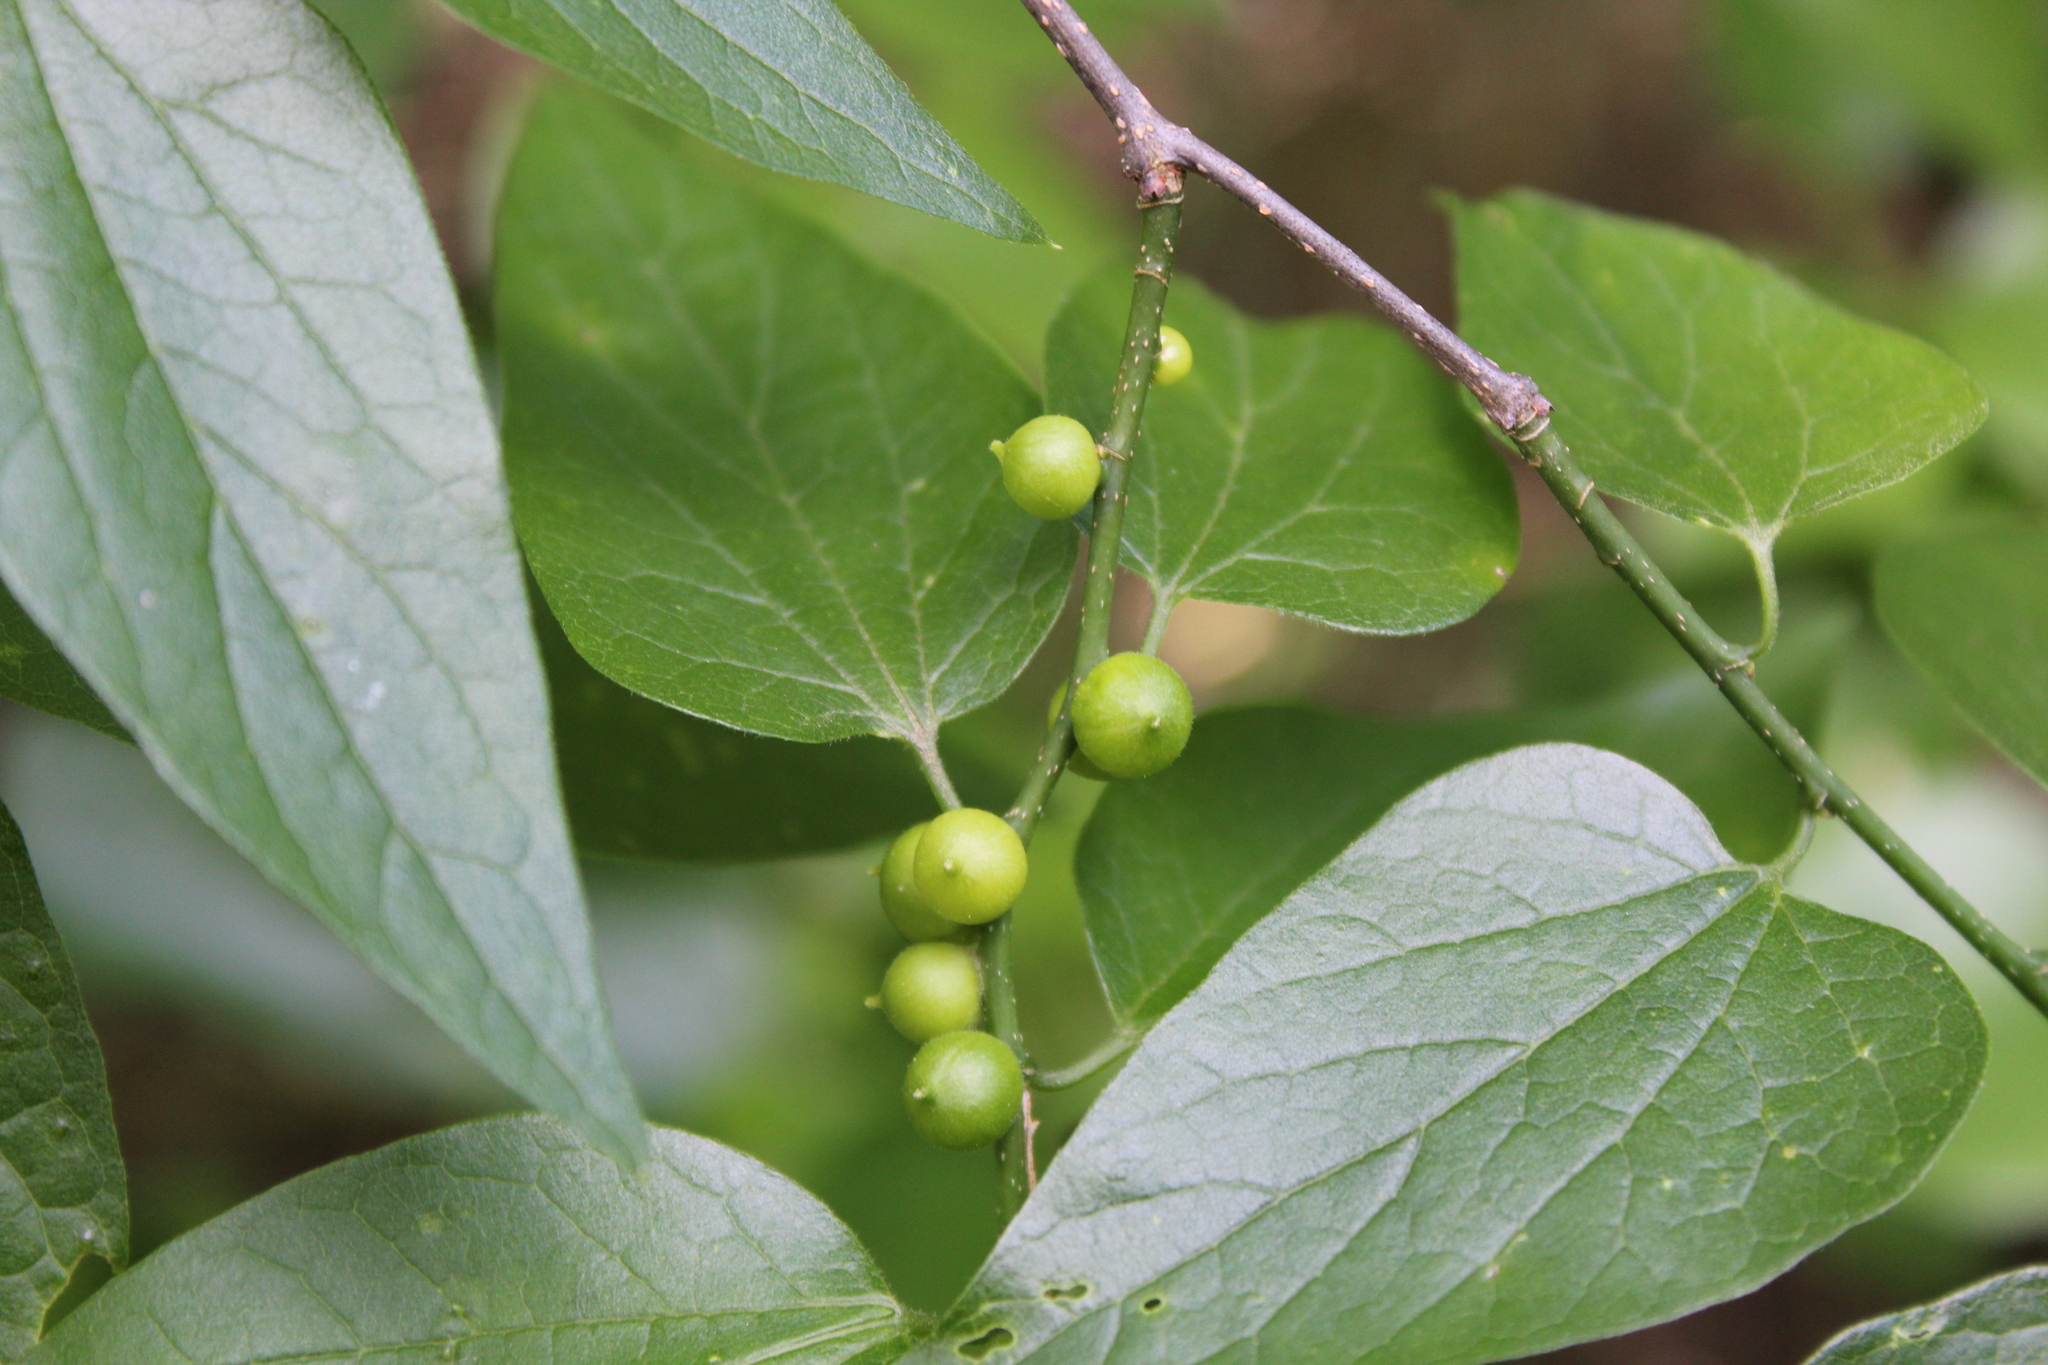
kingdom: Animalia
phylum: Arthropoda
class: Insecta
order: Diptera
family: Cecidomyiidae
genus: Celticecis
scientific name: Celticecis connata
